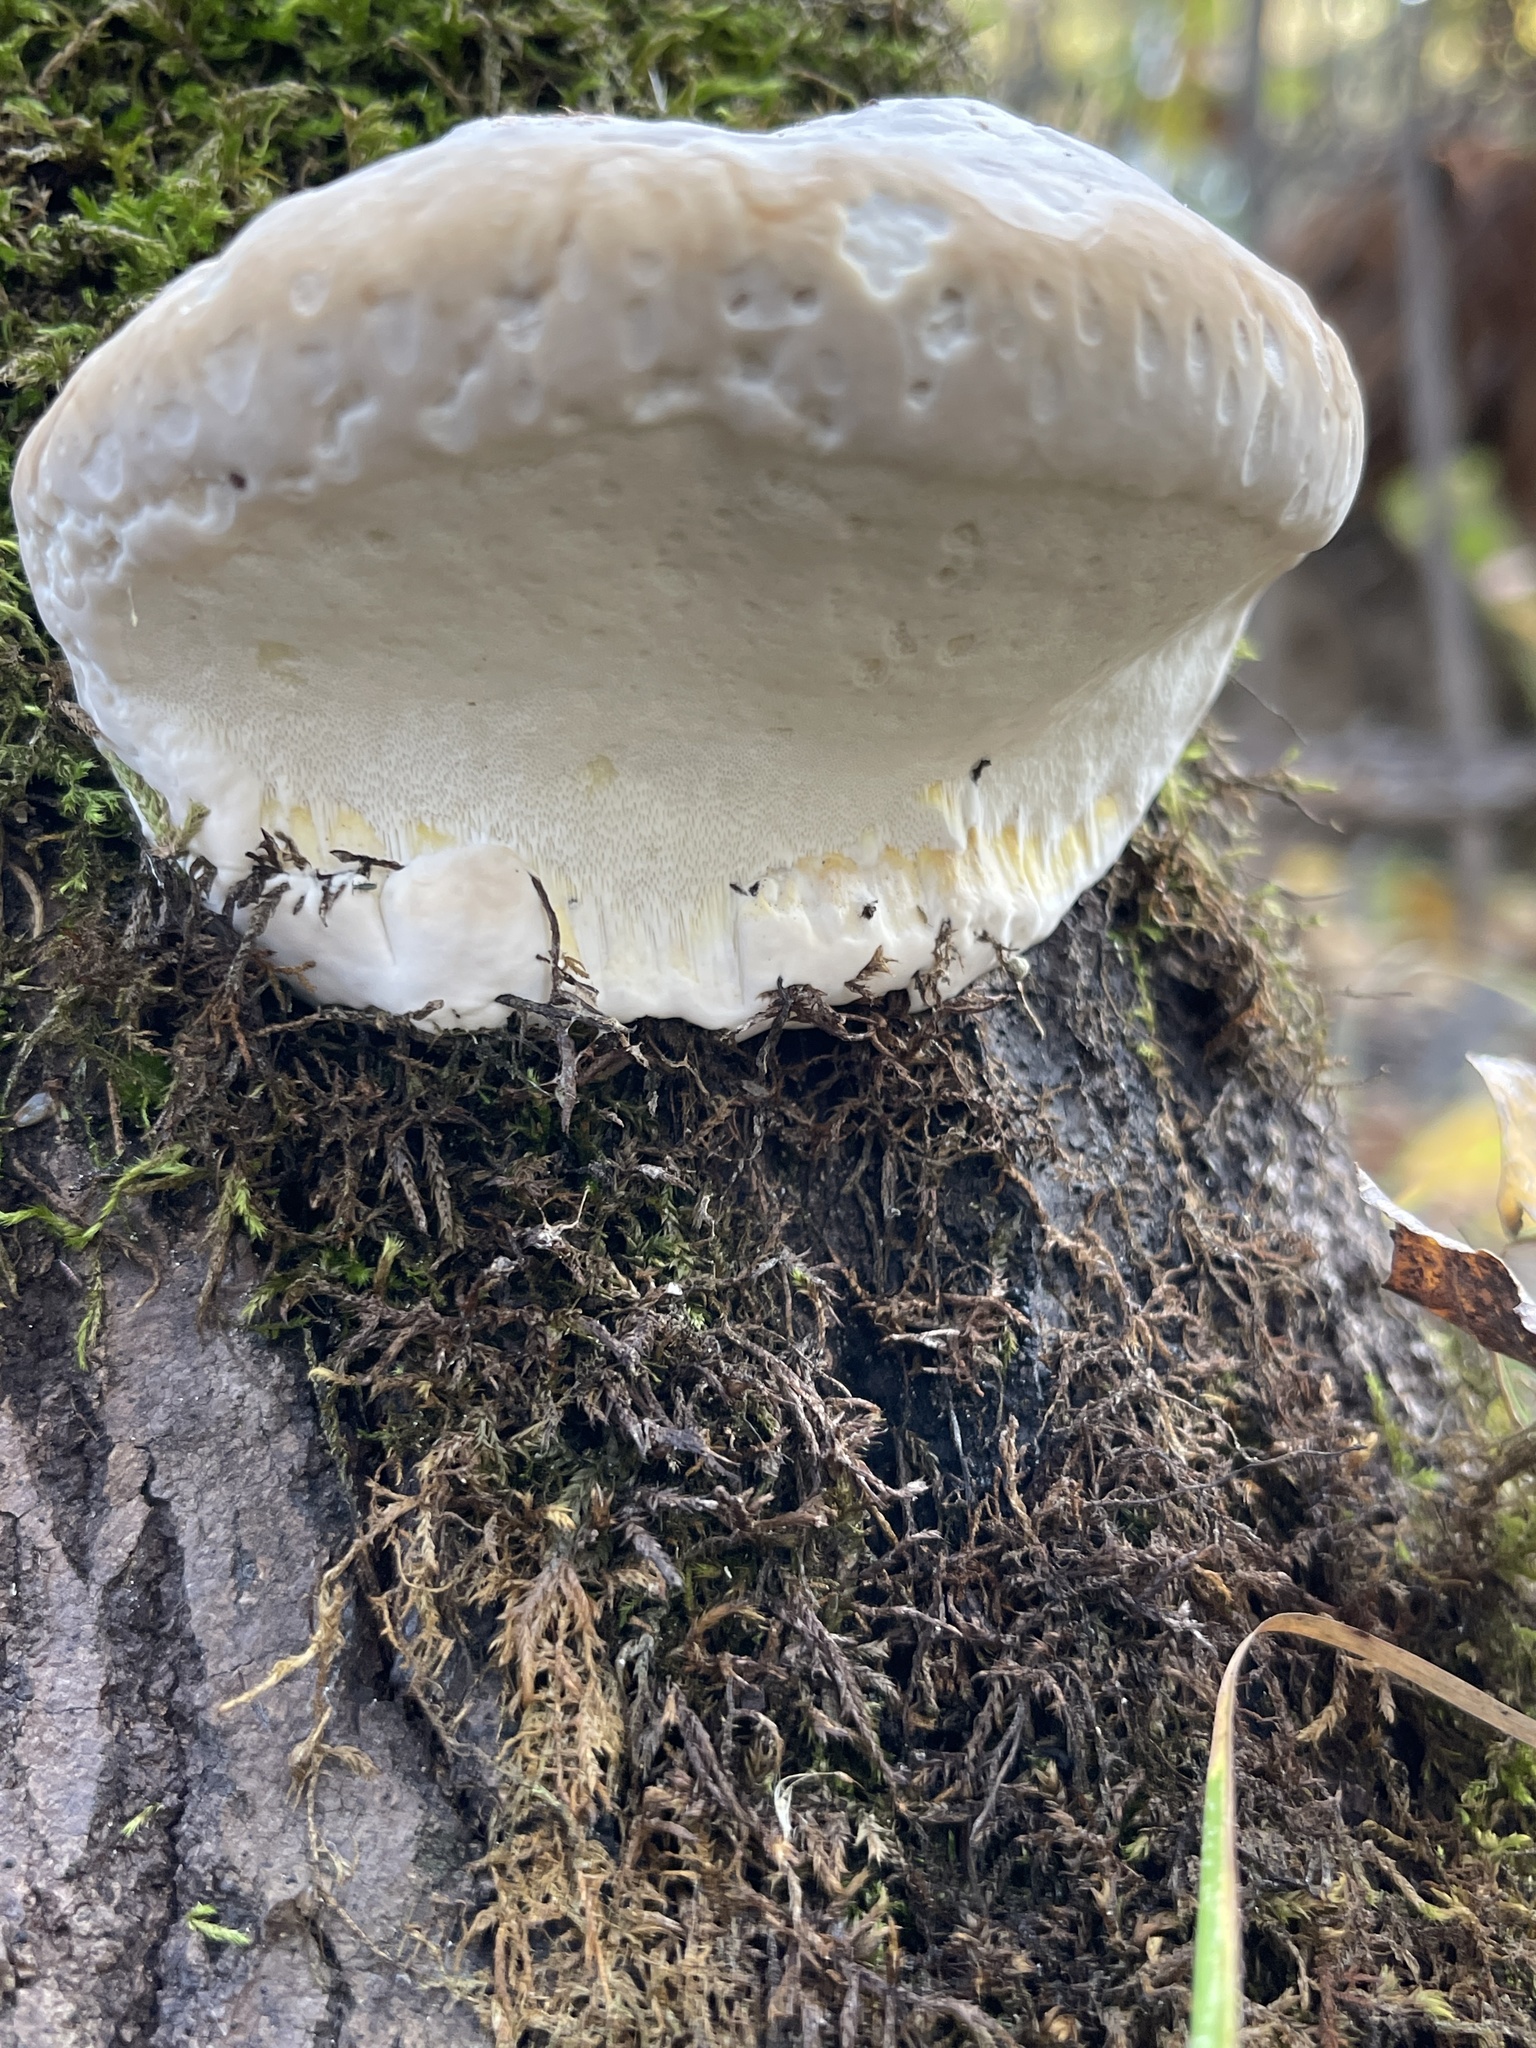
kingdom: Fungi
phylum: Basidiomycota
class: Agaricomycetes
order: Polyporales
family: Fomitopsidaceae
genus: Fomitopsis
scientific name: Fomitopsis ochracea
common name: American brown fomitopsis
